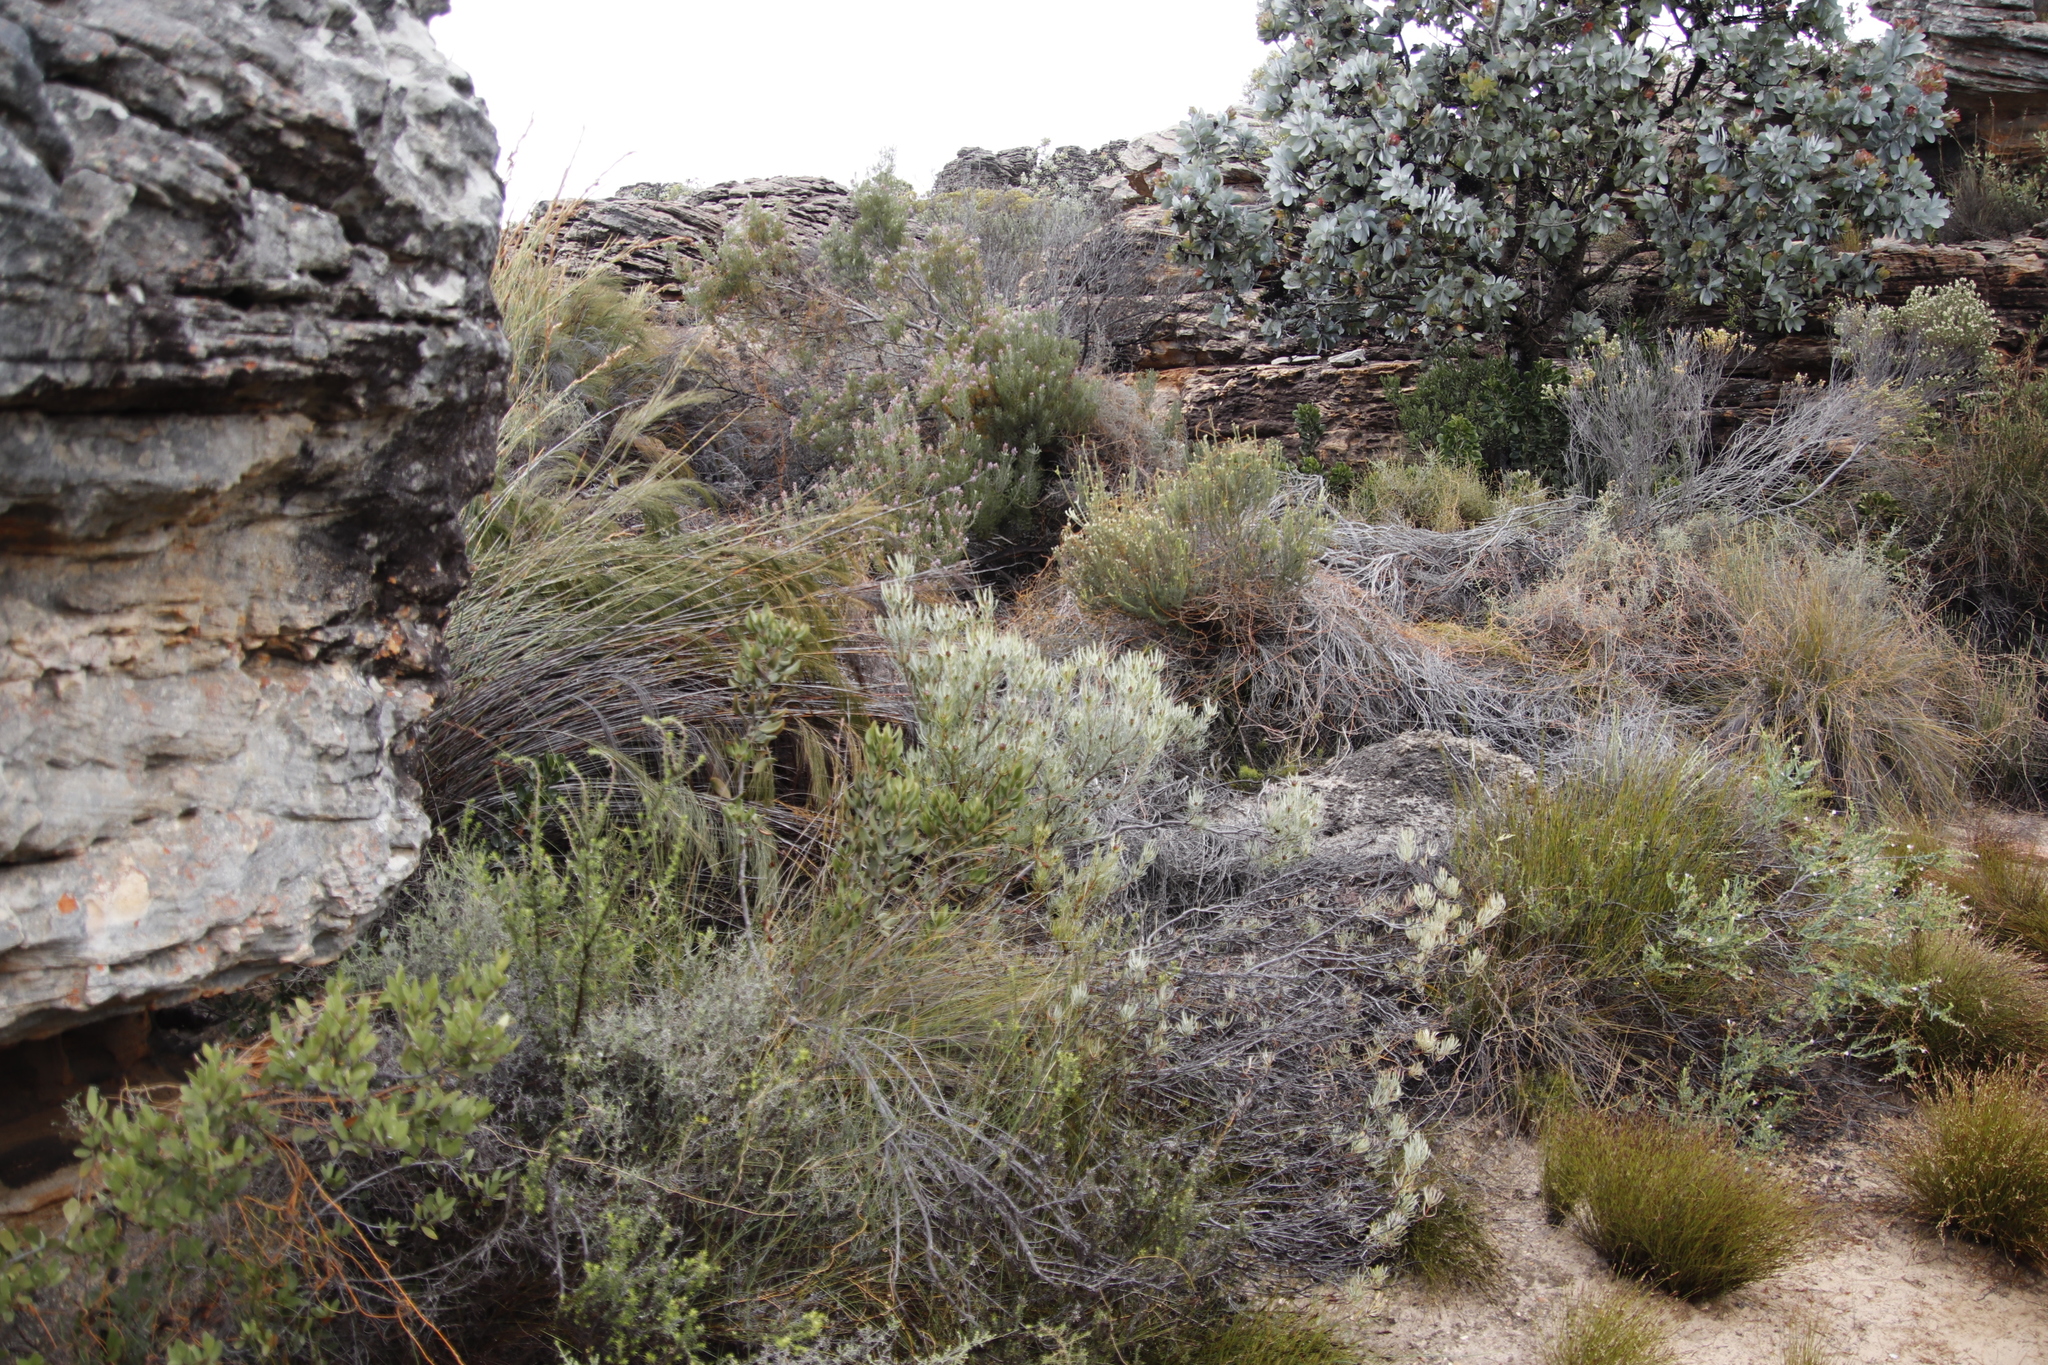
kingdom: Plantae
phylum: Tracheophyta
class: Magnoliopsida
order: Proteales
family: Proteaceae
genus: Leucadendron
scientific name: Leucadendron meyerianum
